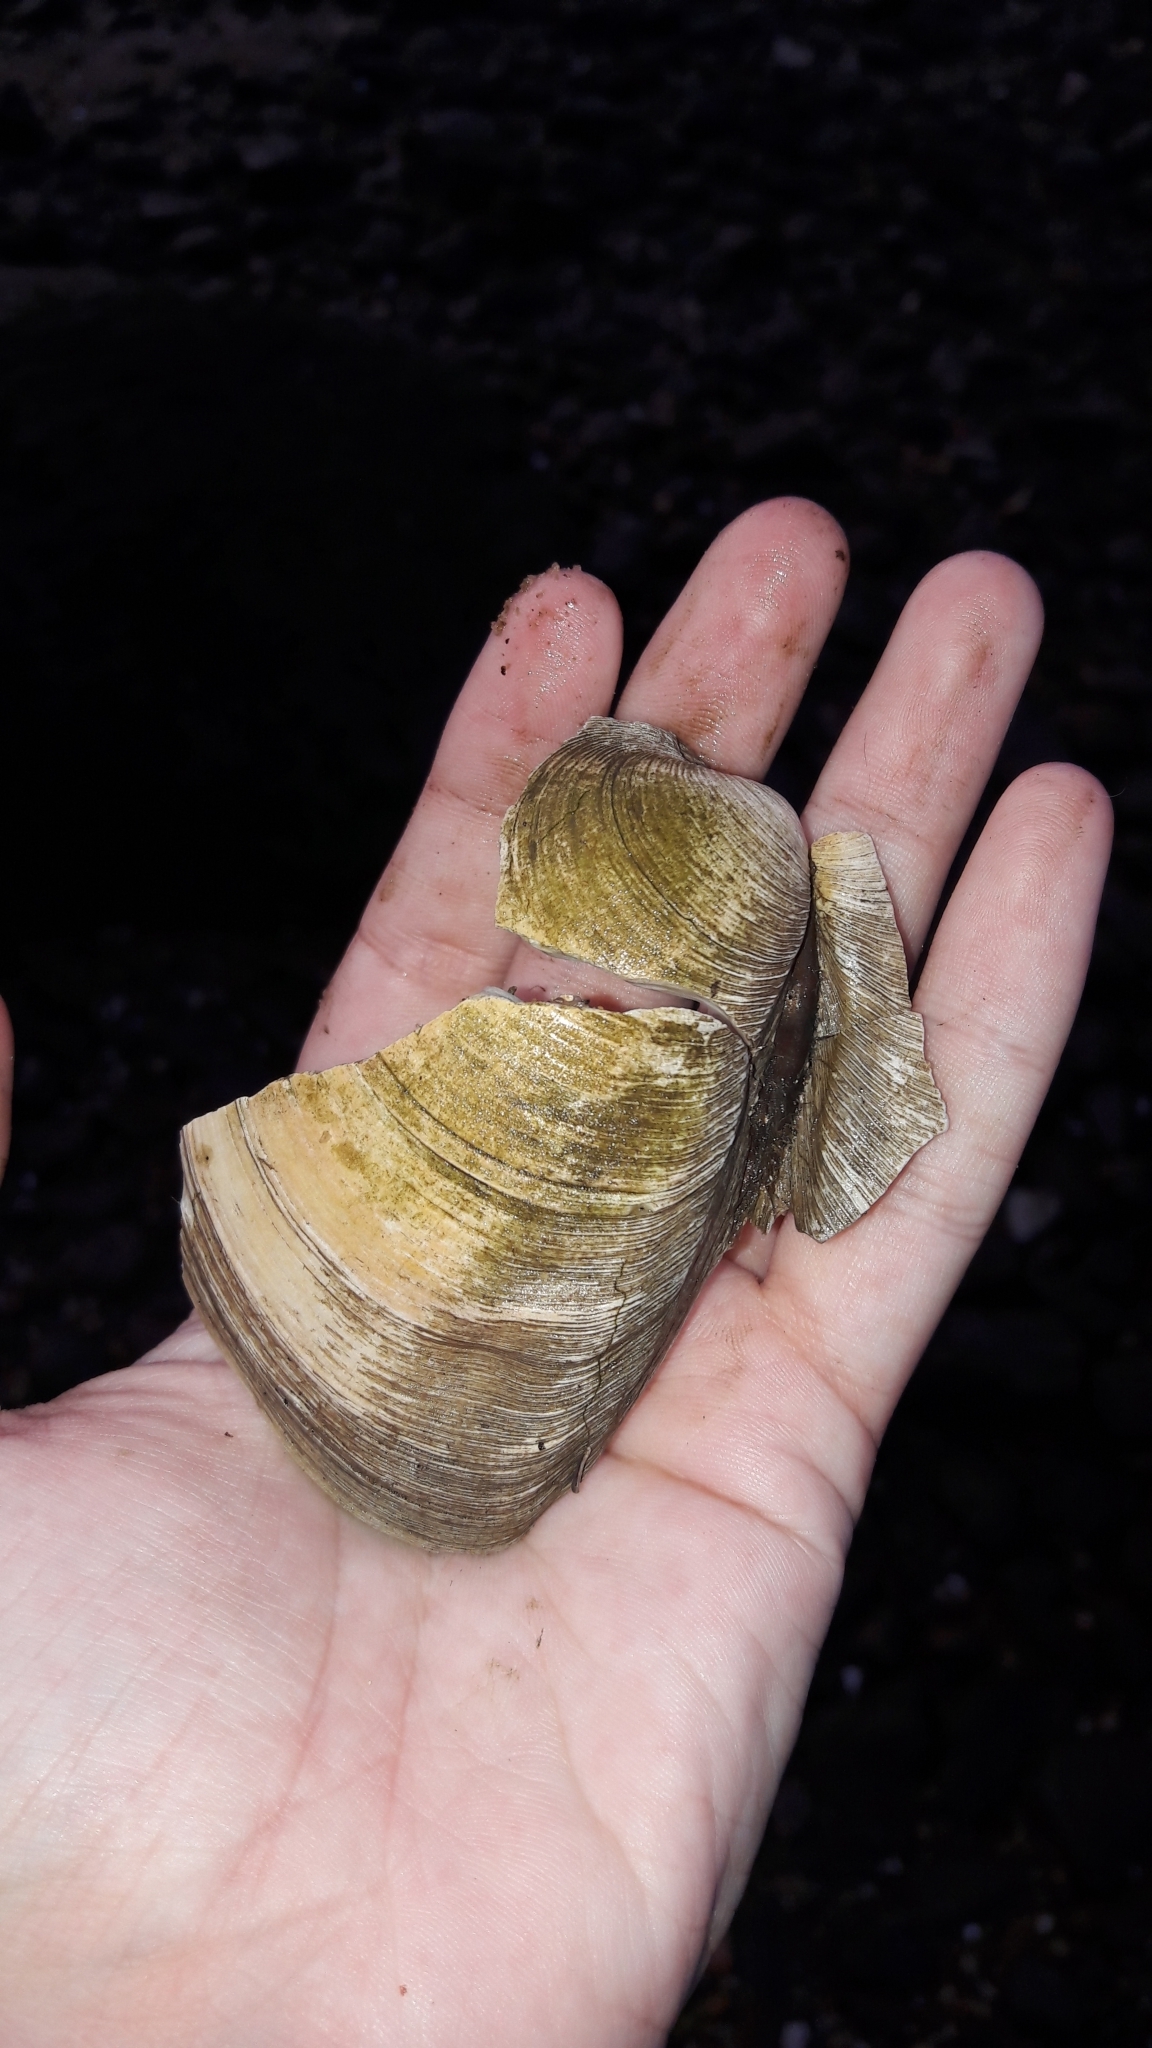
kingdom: Animalia
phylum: Mollusca
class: Bivalvia
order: Venerida
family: Veneridae
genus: Mercenaria
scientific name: Mercenaria mercenaria
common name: American hard-shelled clam
